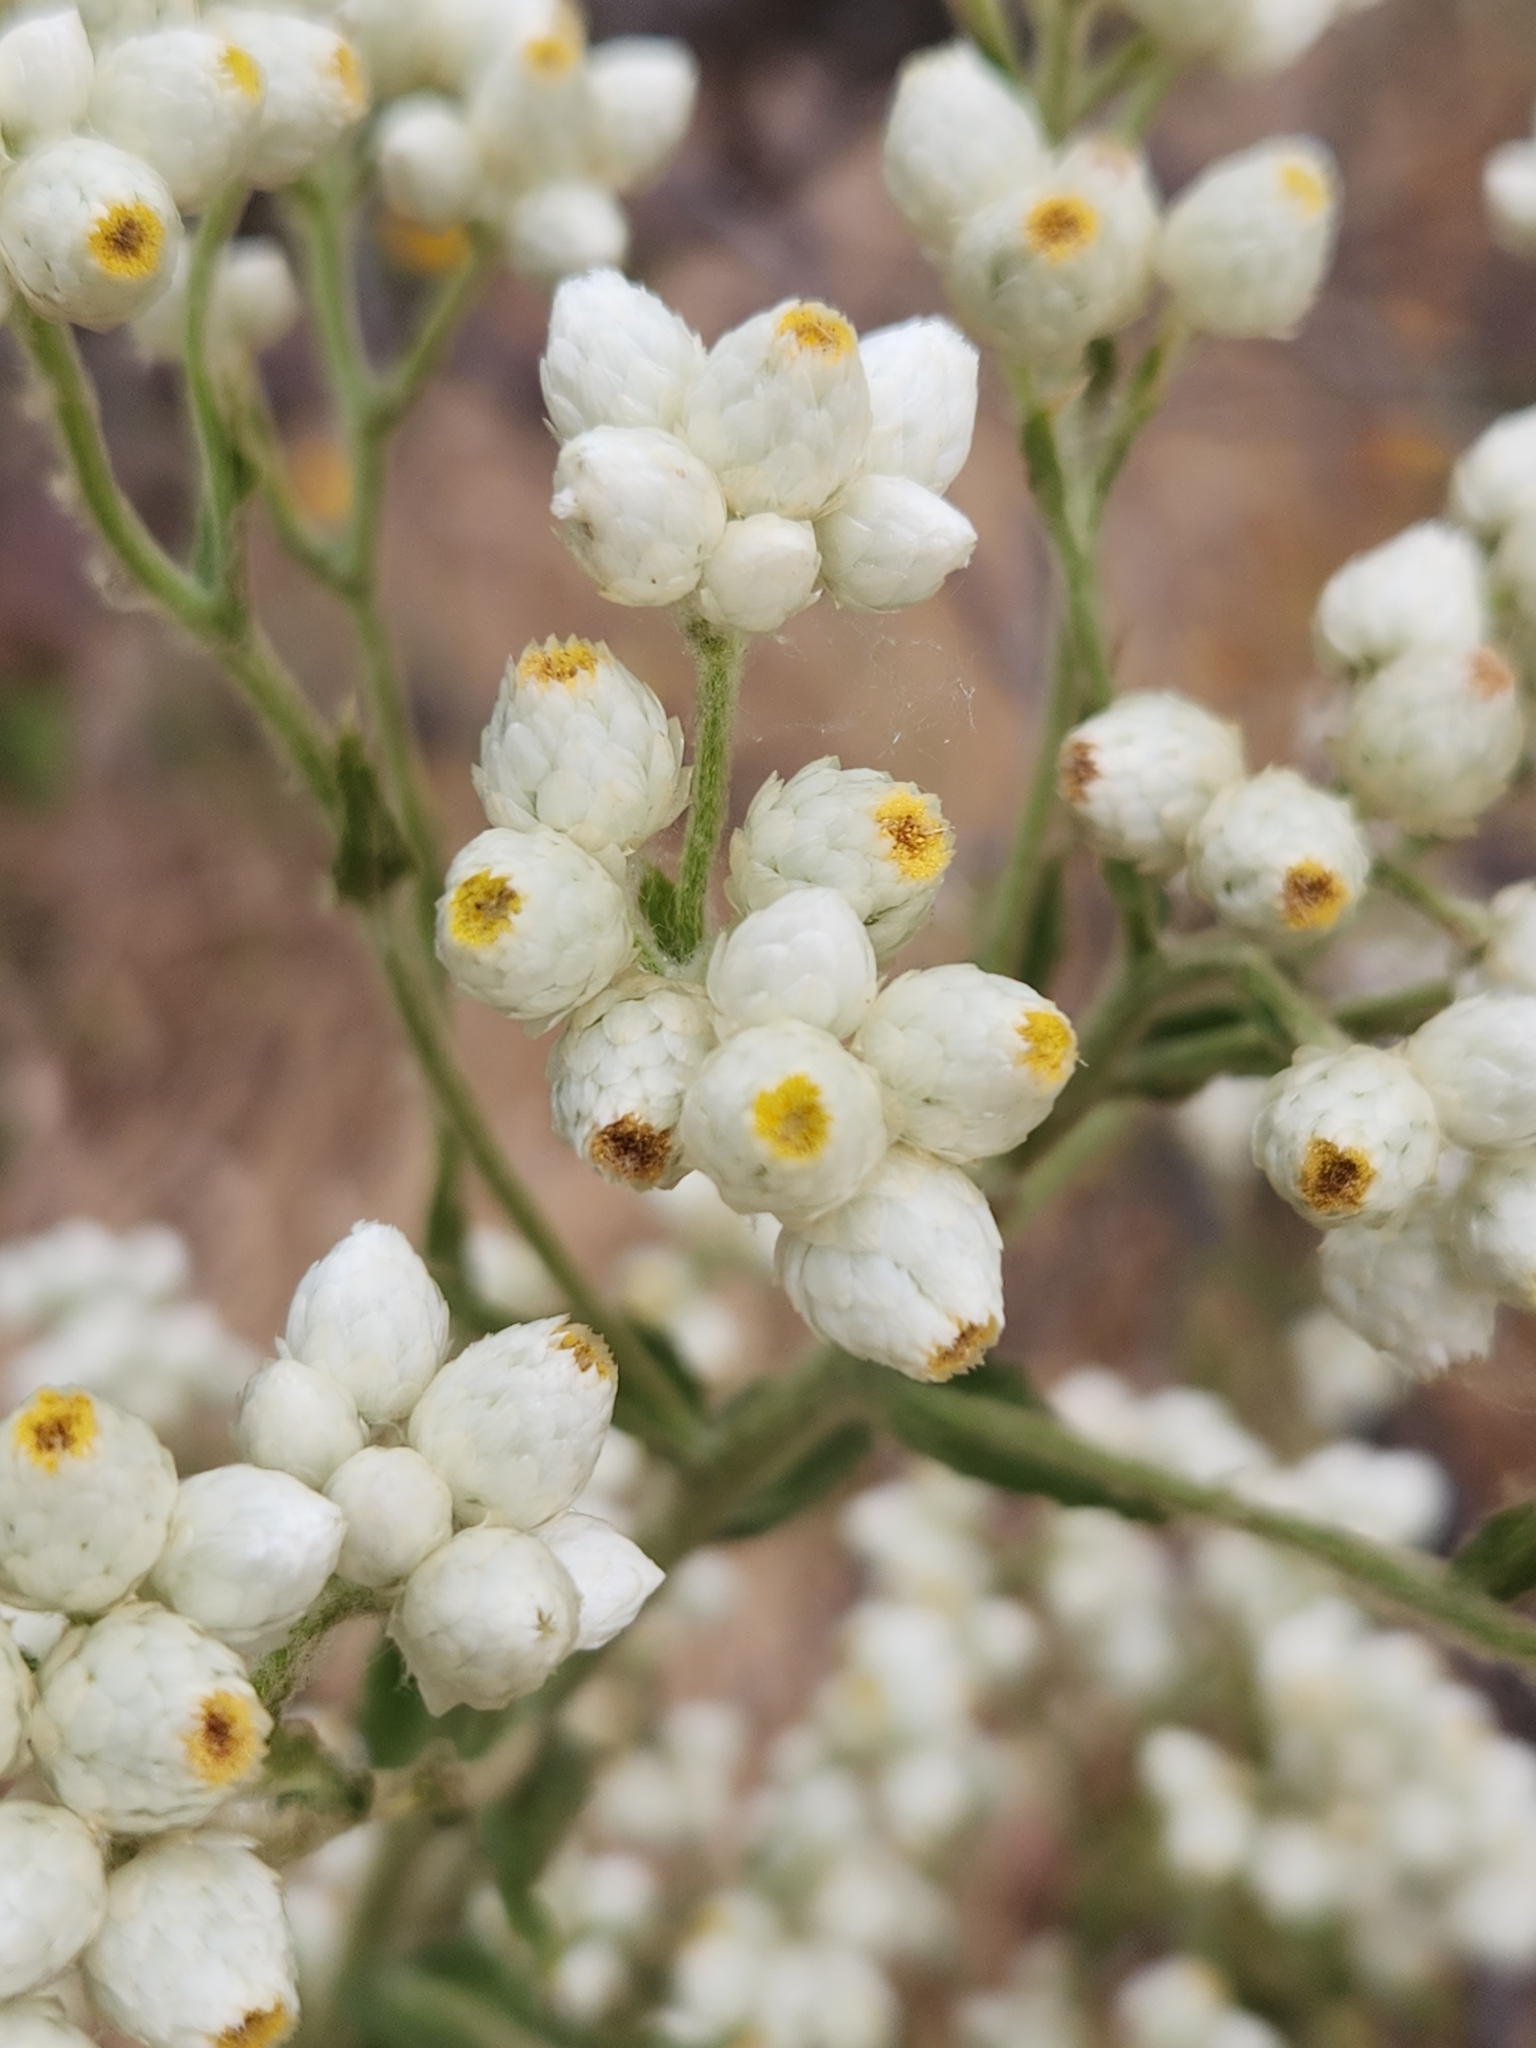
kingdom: Plantae
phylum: Tracheophyta
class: Magnoliopsida
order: Asterales
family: Asteraceae
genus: Pseudognaphalium
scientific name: Pseudognaphalium californicum
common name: California rabbit-tobacco
